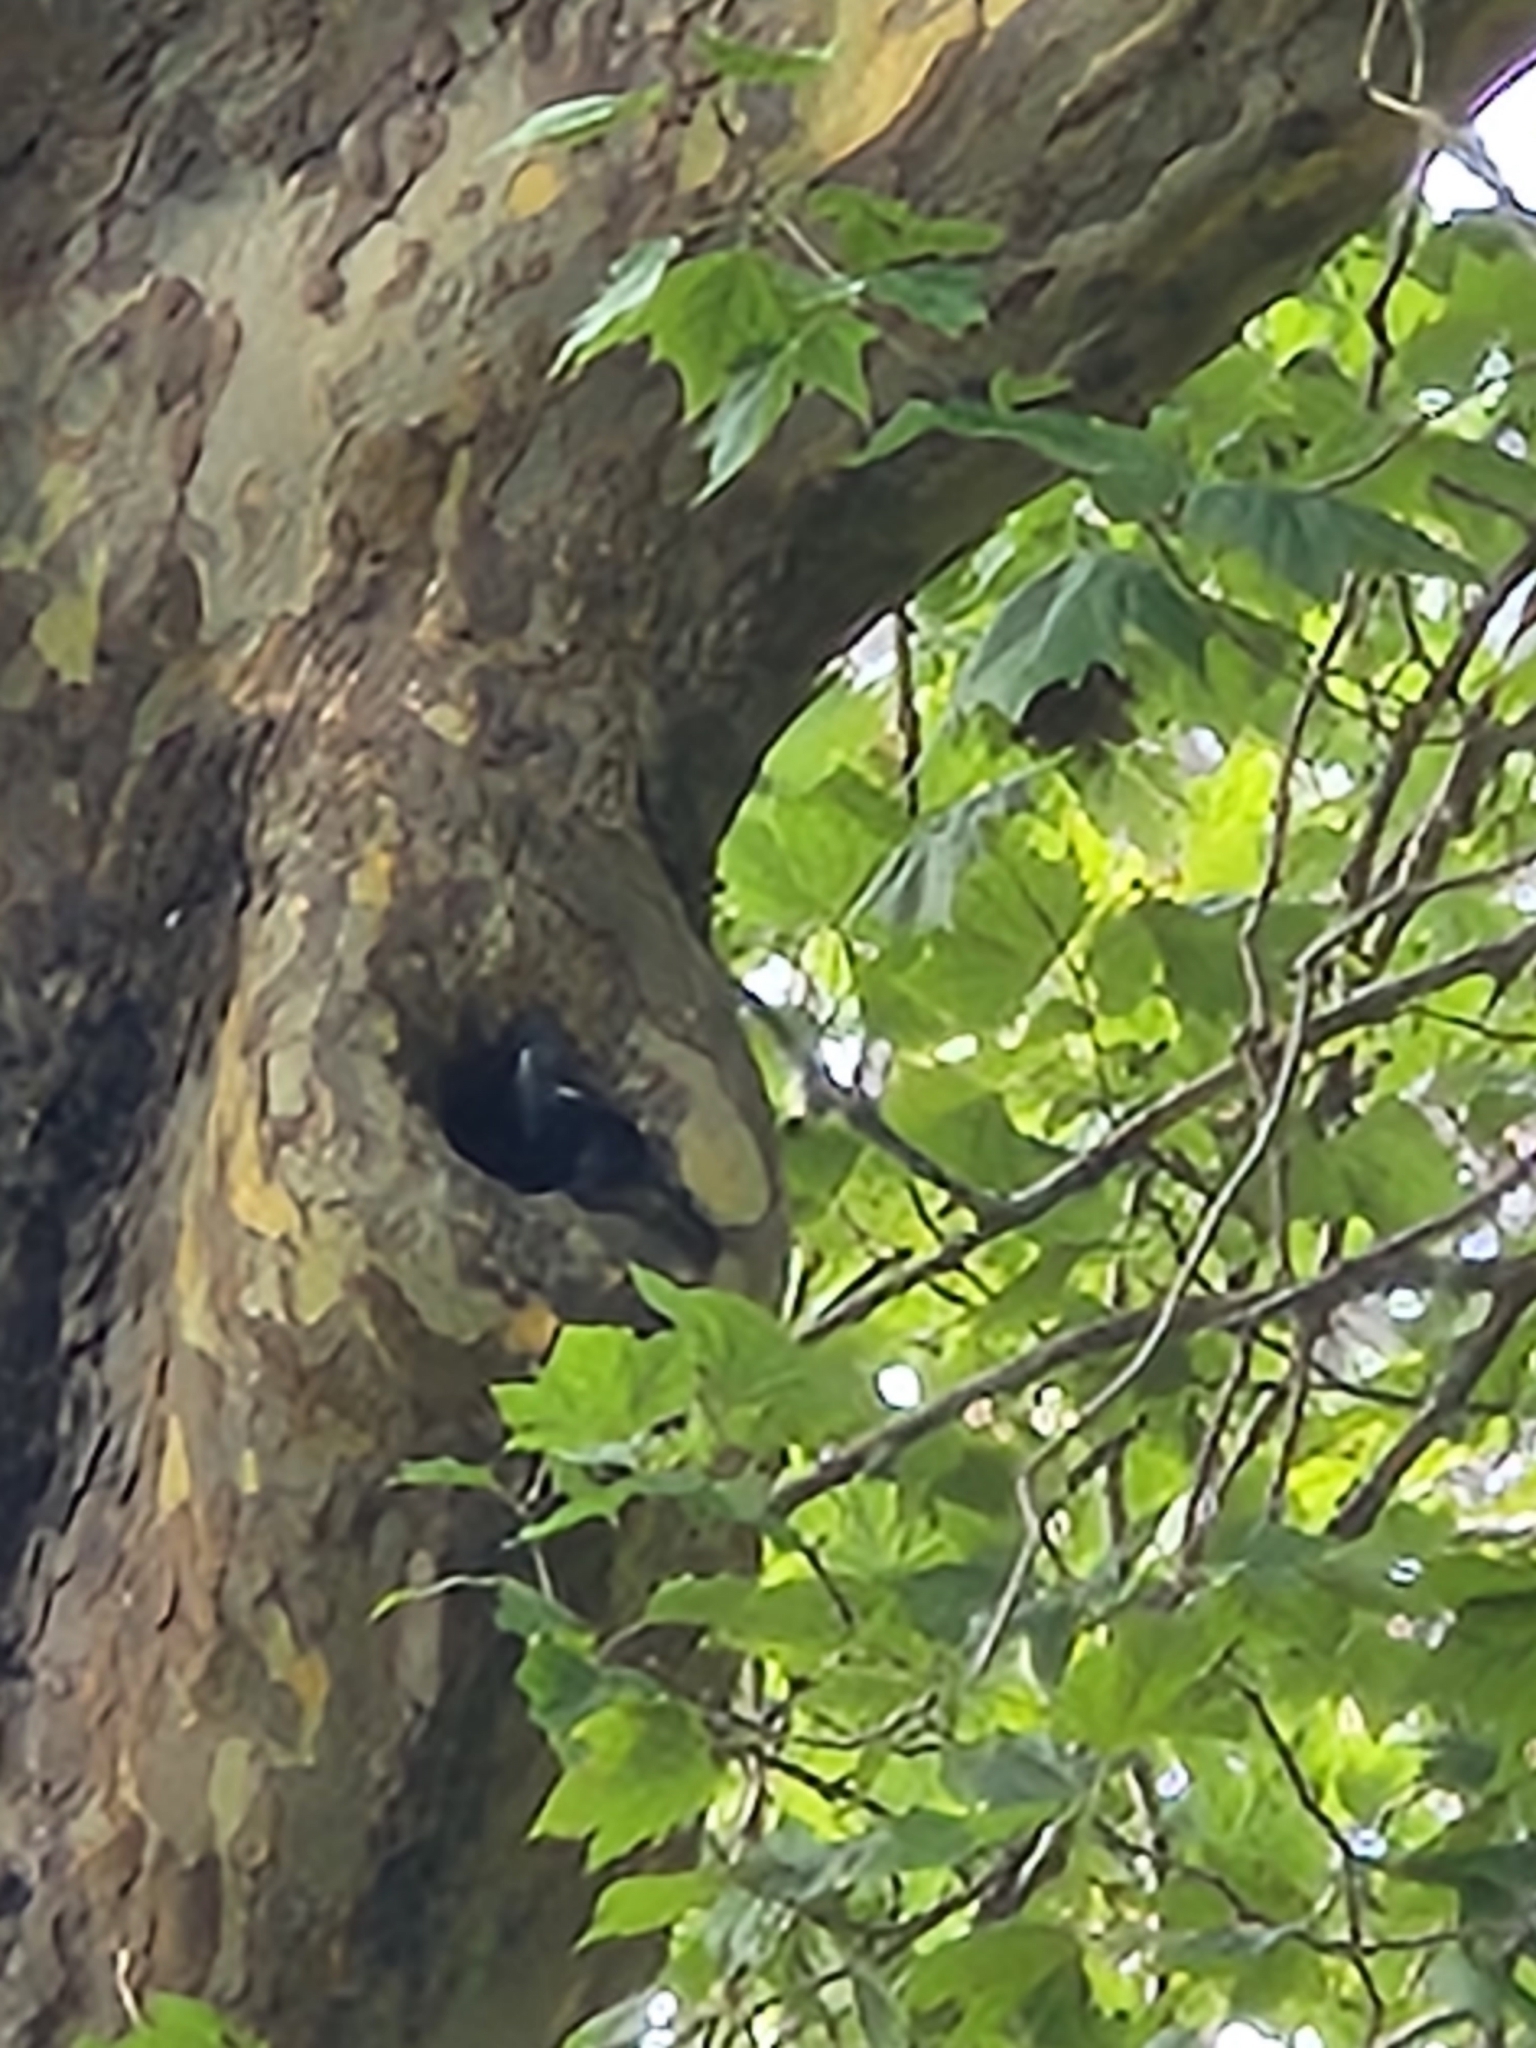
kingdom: Animalia
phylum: Chordata
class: Aves
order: Passeriformes
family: Meliphagidae
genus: Prosthemadera
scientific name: Prosthemadera novaeseelandiae
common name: Tui
